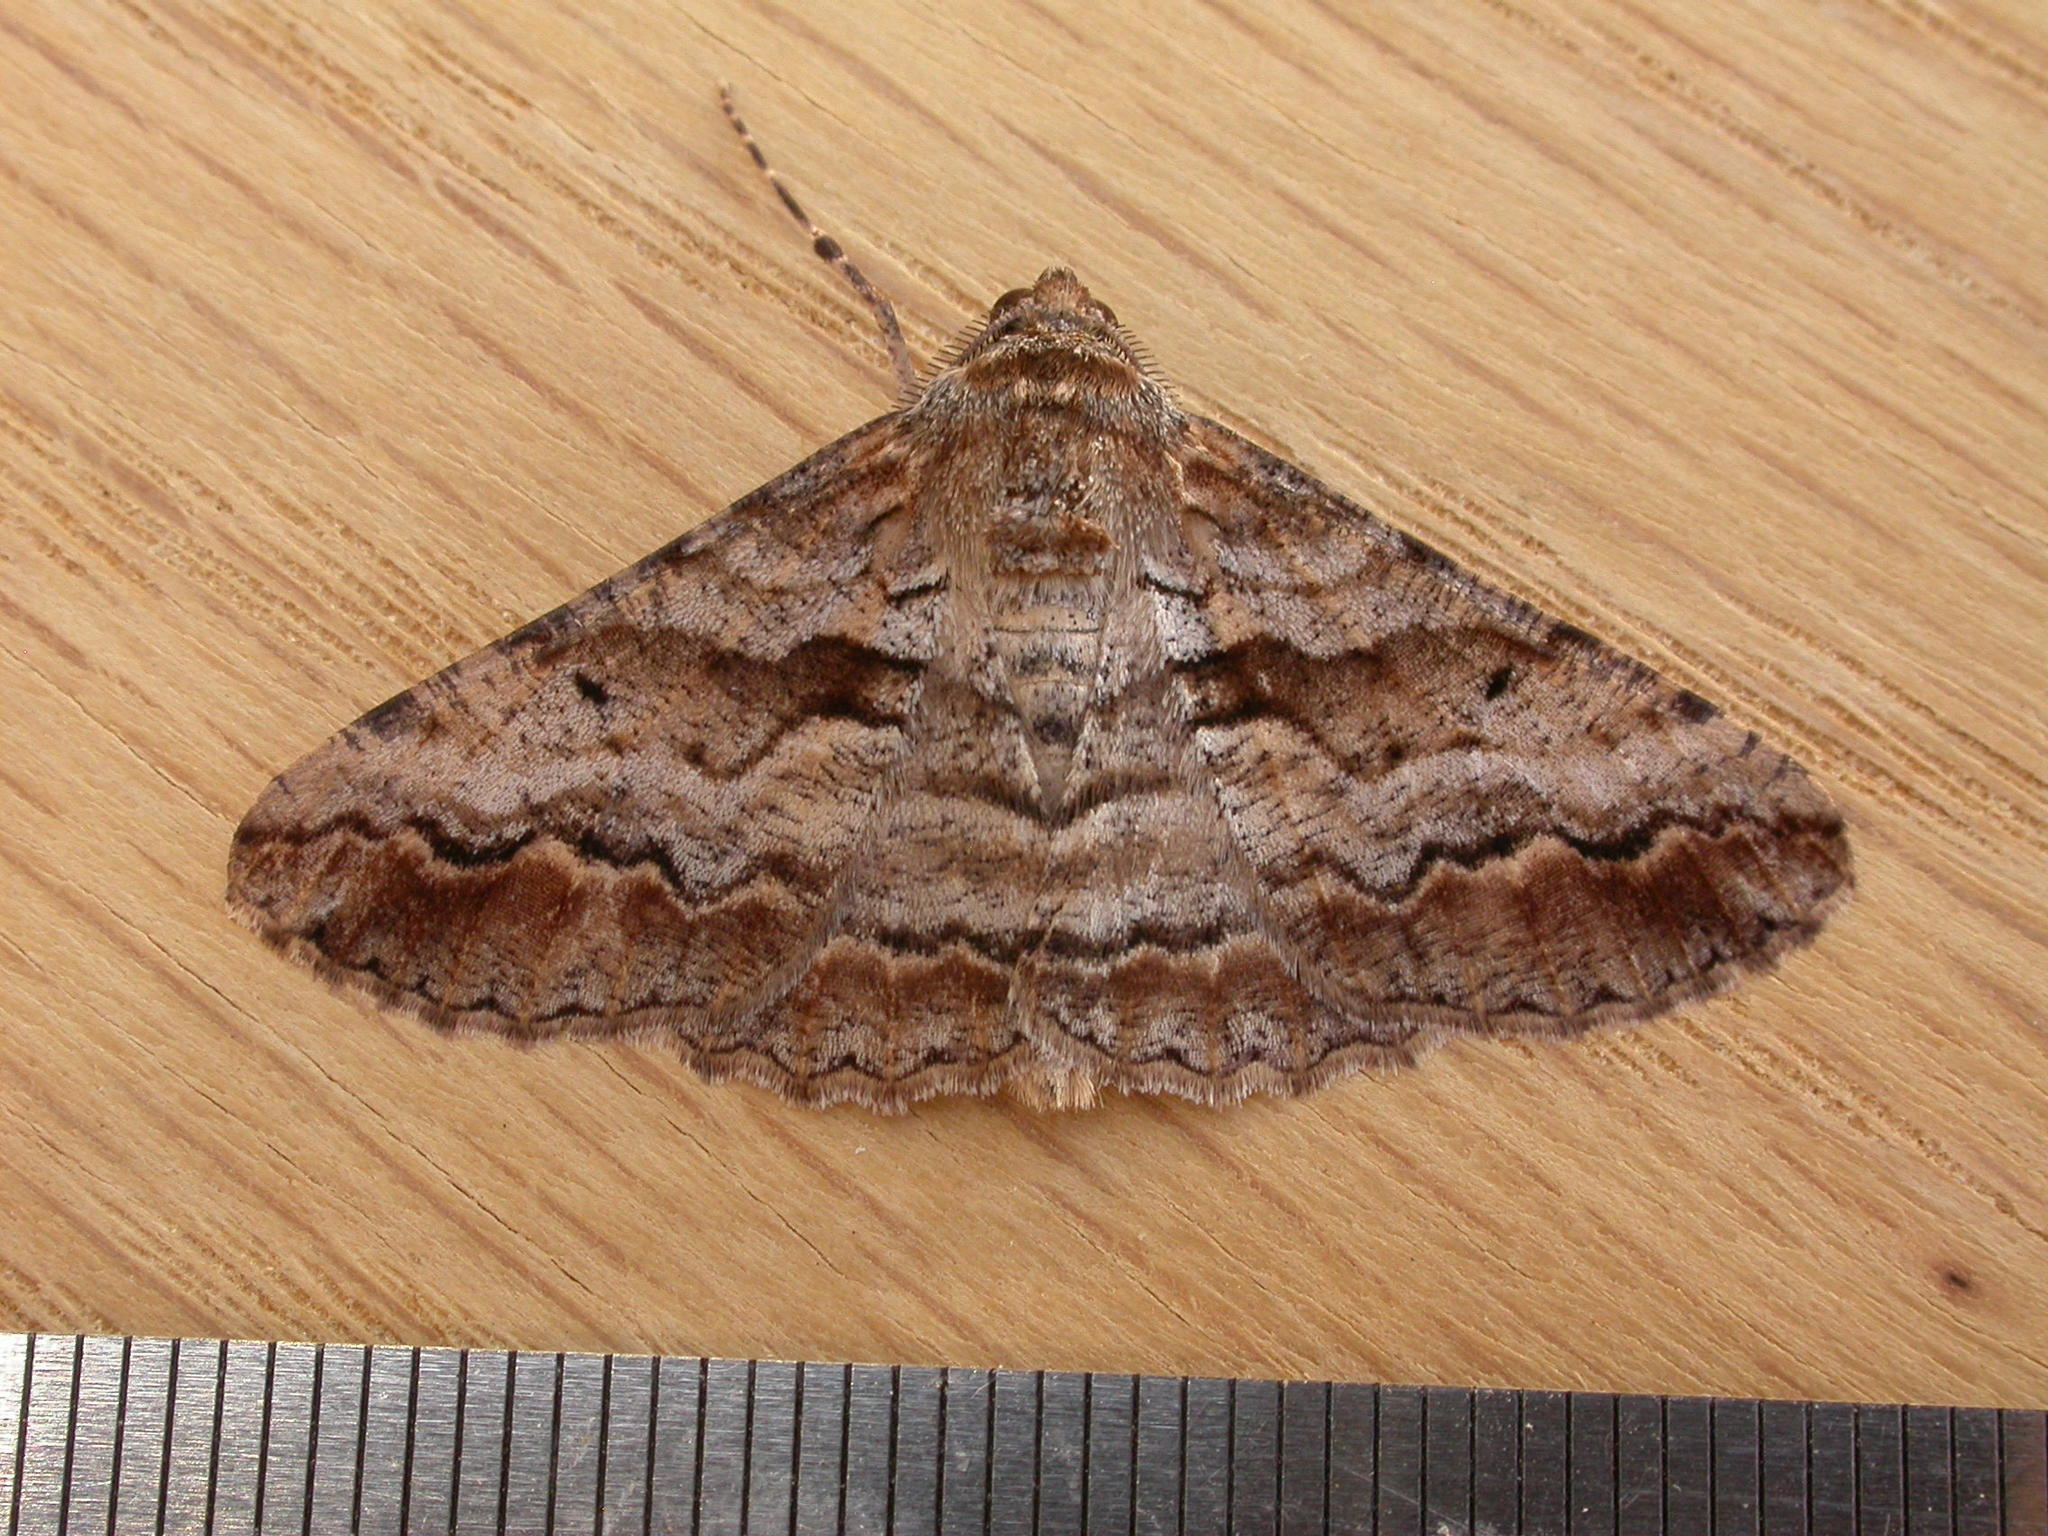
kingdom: Animalia
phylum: Arthropoda
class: Insecta
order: Lepidoptera
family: Geometridae
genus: Gastrinodes
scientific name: Gastrinodes bitaeniaria
